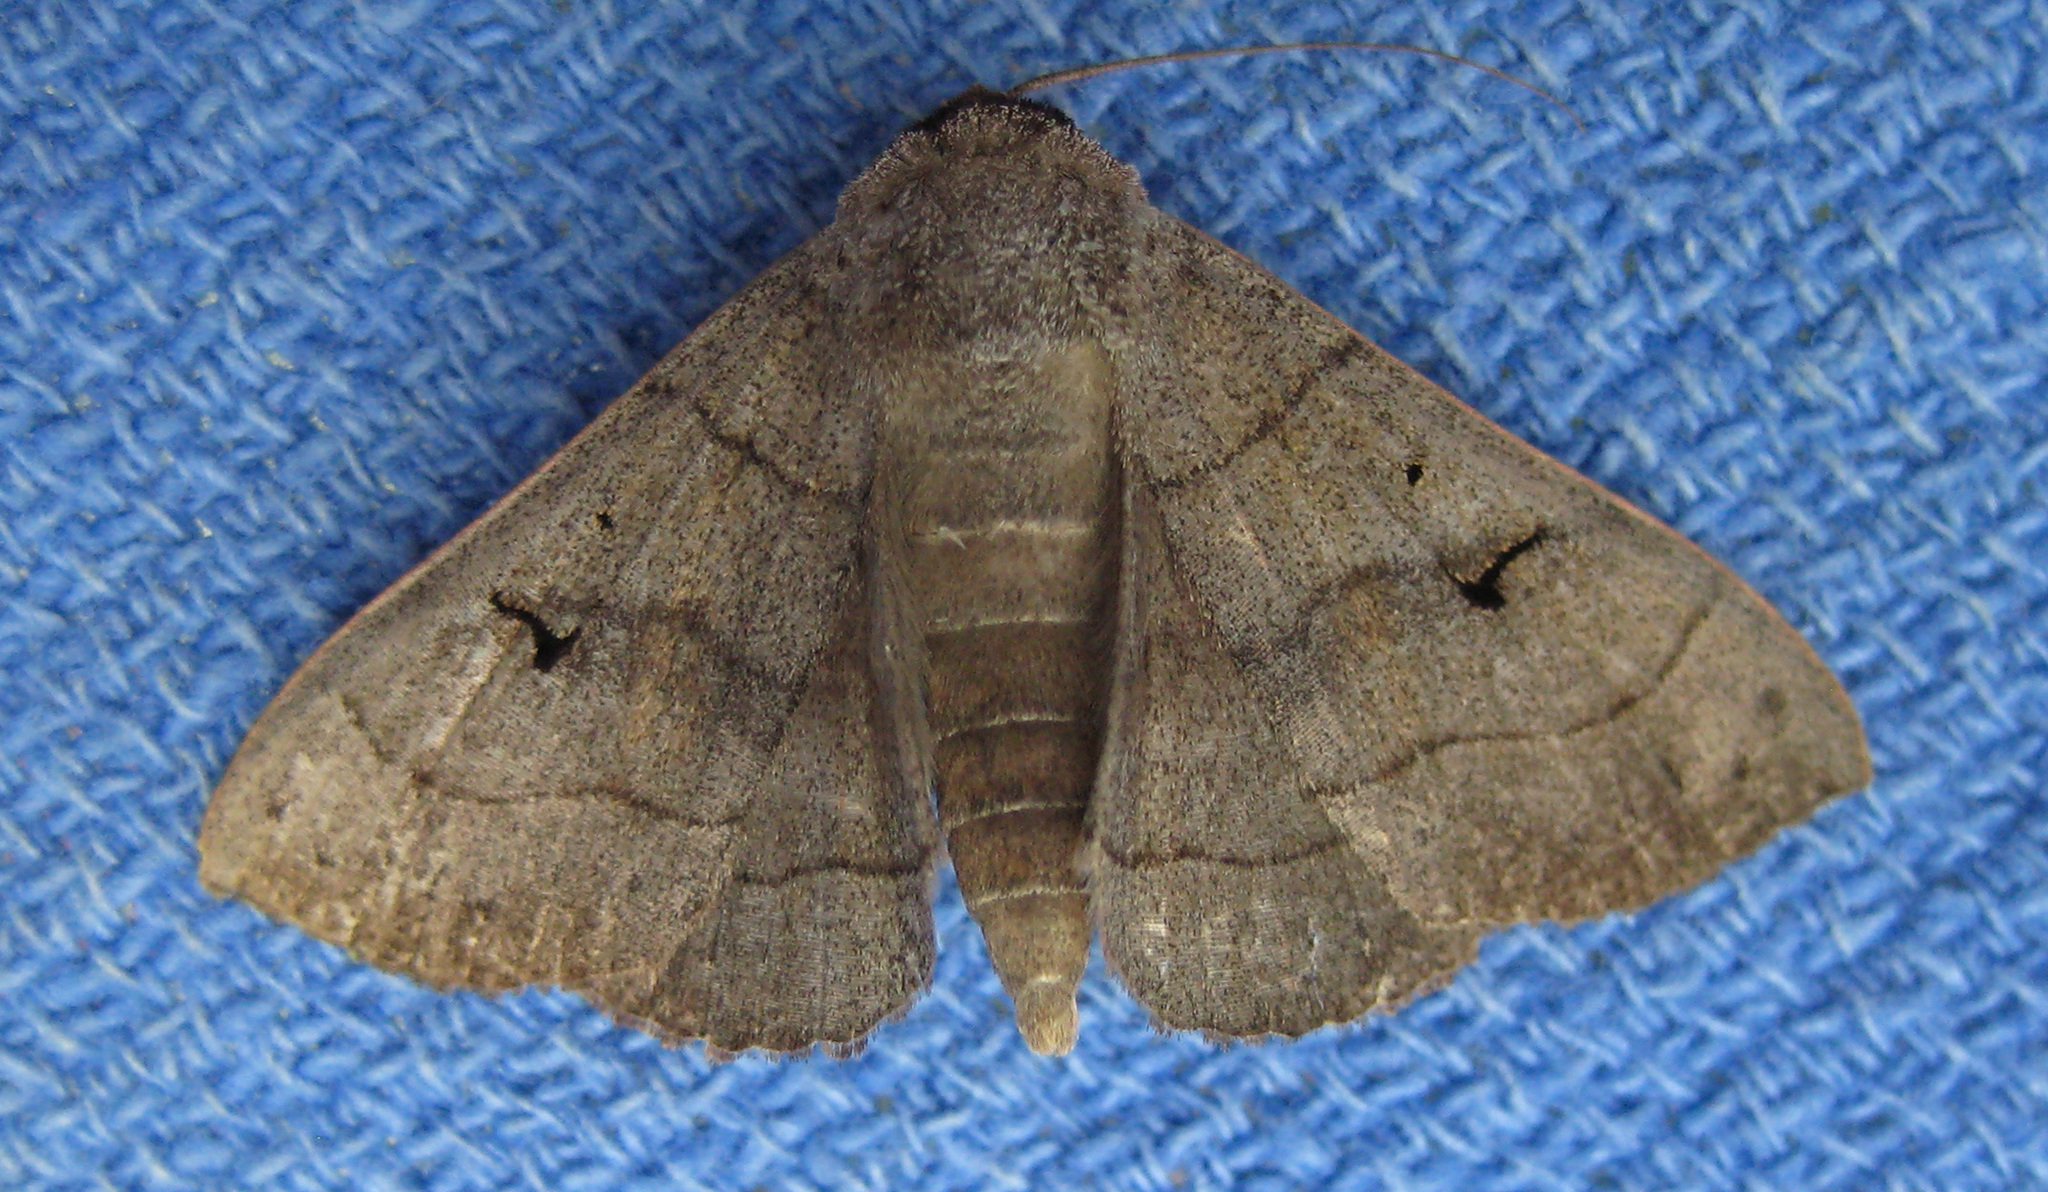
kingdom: Animalia
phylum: Arthropoda
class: Insecta
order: Lepidoptera
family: Erebidae
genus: Panopoda
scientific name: Panopoda carneicosta
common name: Brown panopoda moth
